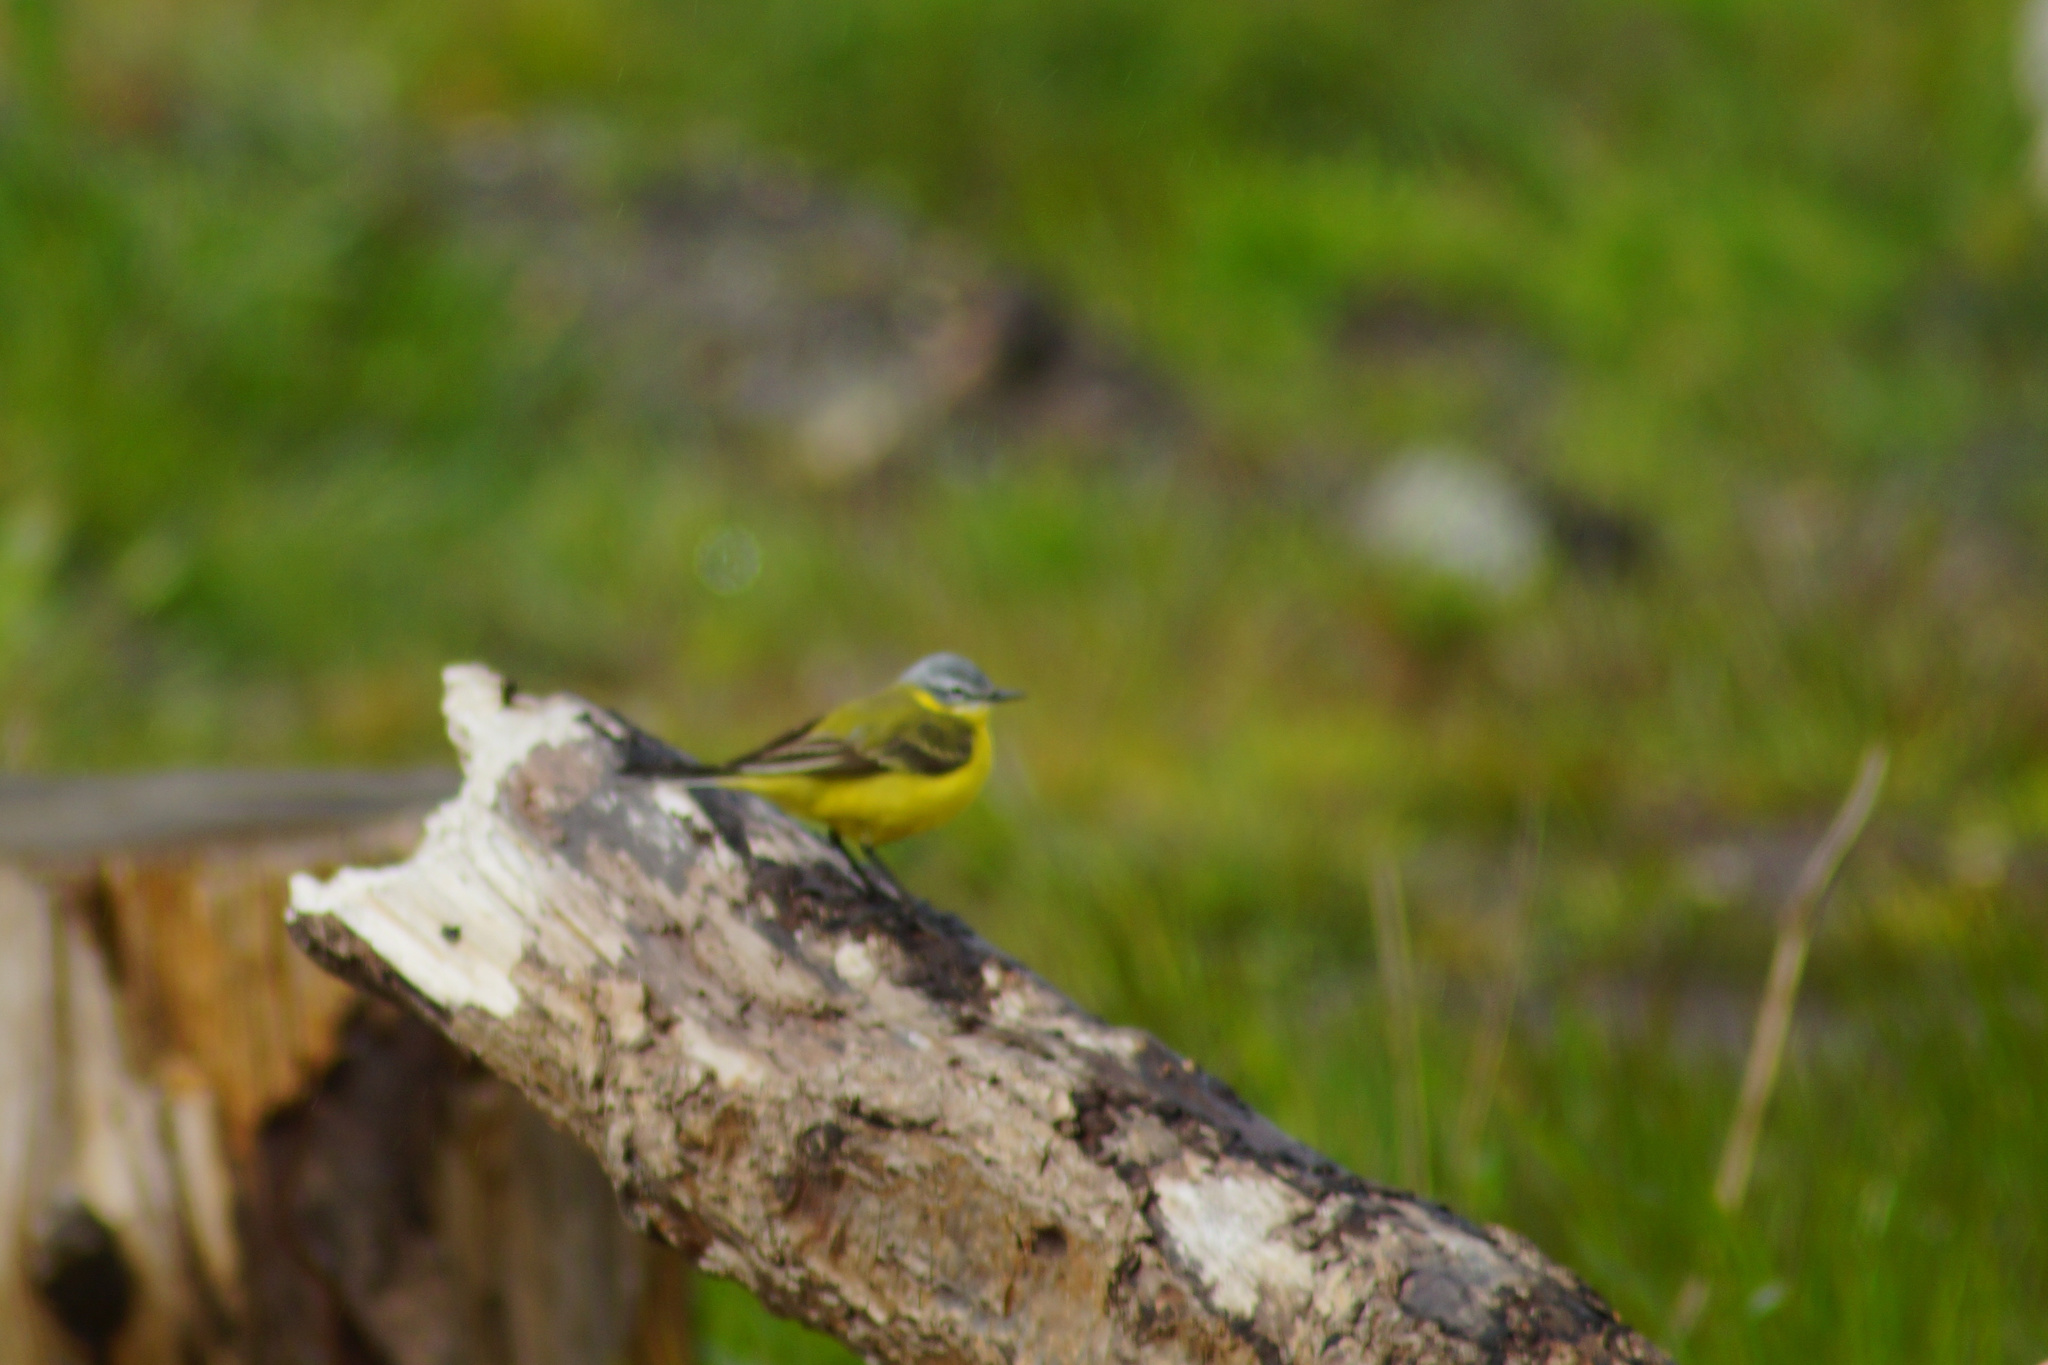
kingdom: Animalia
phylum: Chordata
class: Aves
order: Passeriformes
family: Motacillidae
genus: Motacilla
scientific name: Motacilla flava
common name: Western yellow wagtail
